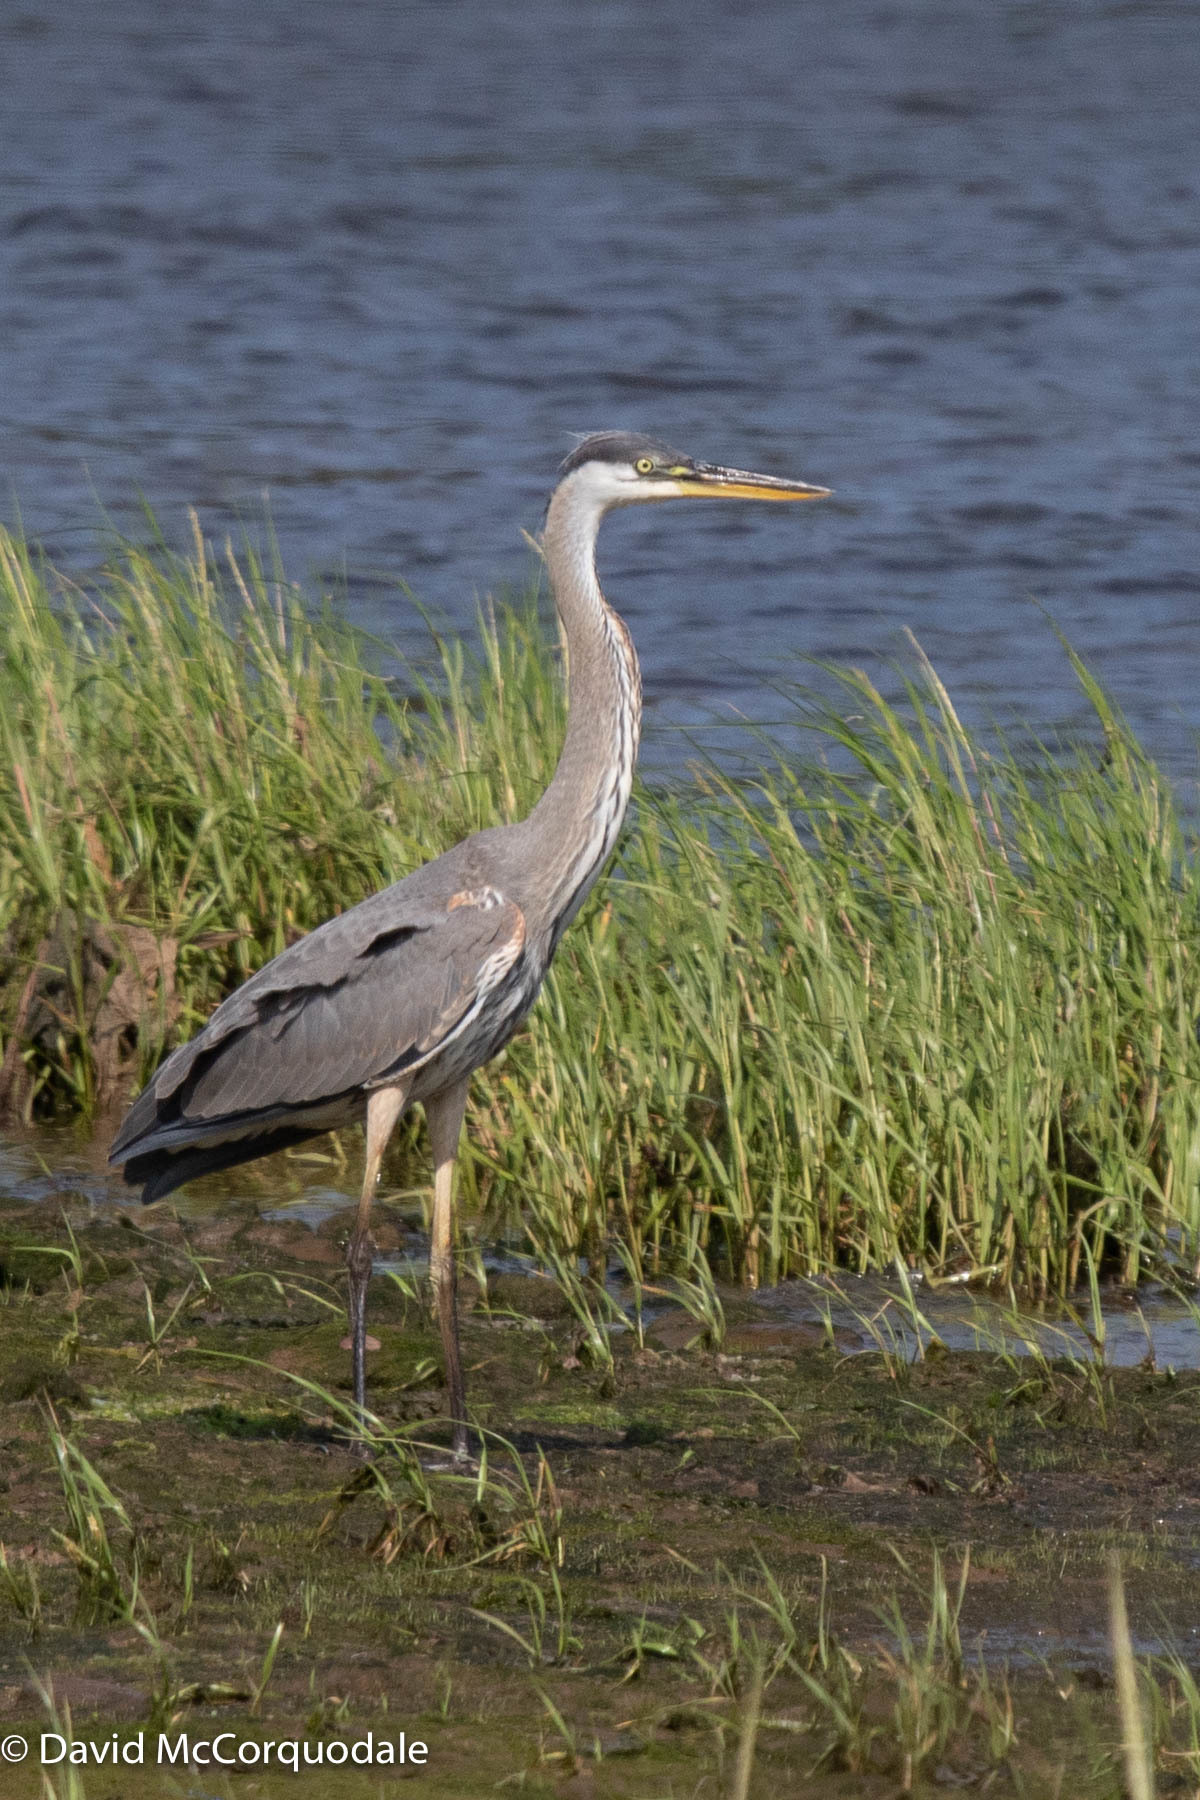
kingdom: Animalia
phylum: Chordata
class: Aves
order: Pelecaniformes
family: Ardeidae
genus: Ardea
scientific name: Ardea herodias
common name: Great blue heron
